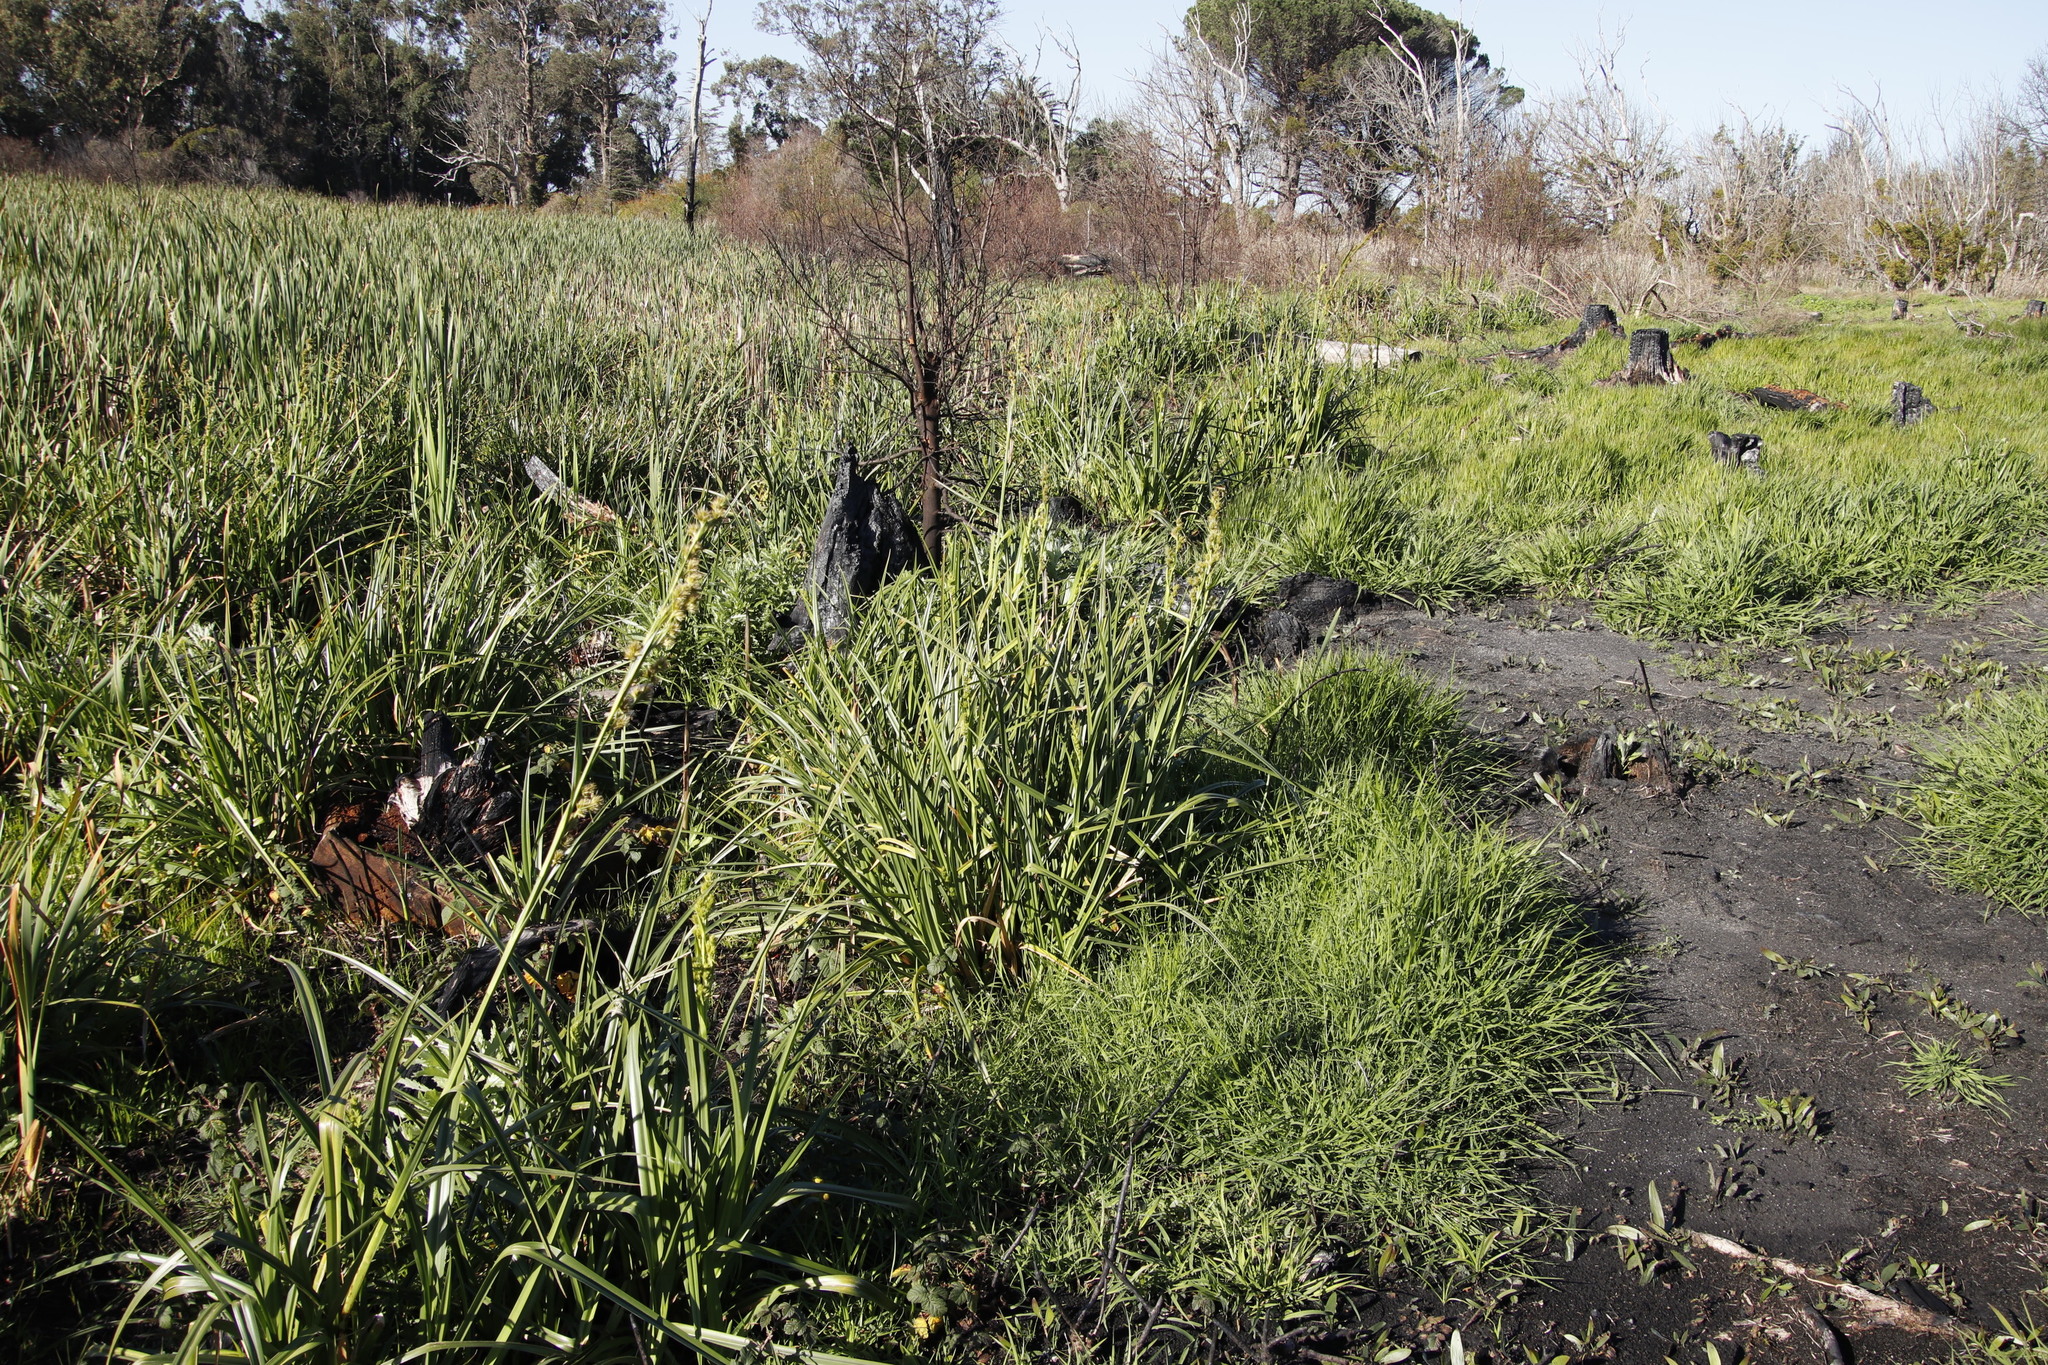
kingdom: Plantae
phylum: Tracheophyta
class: Liliopsida
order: Poales
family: Cyperaceae
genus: Carpha
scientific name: Carpha glomerata
